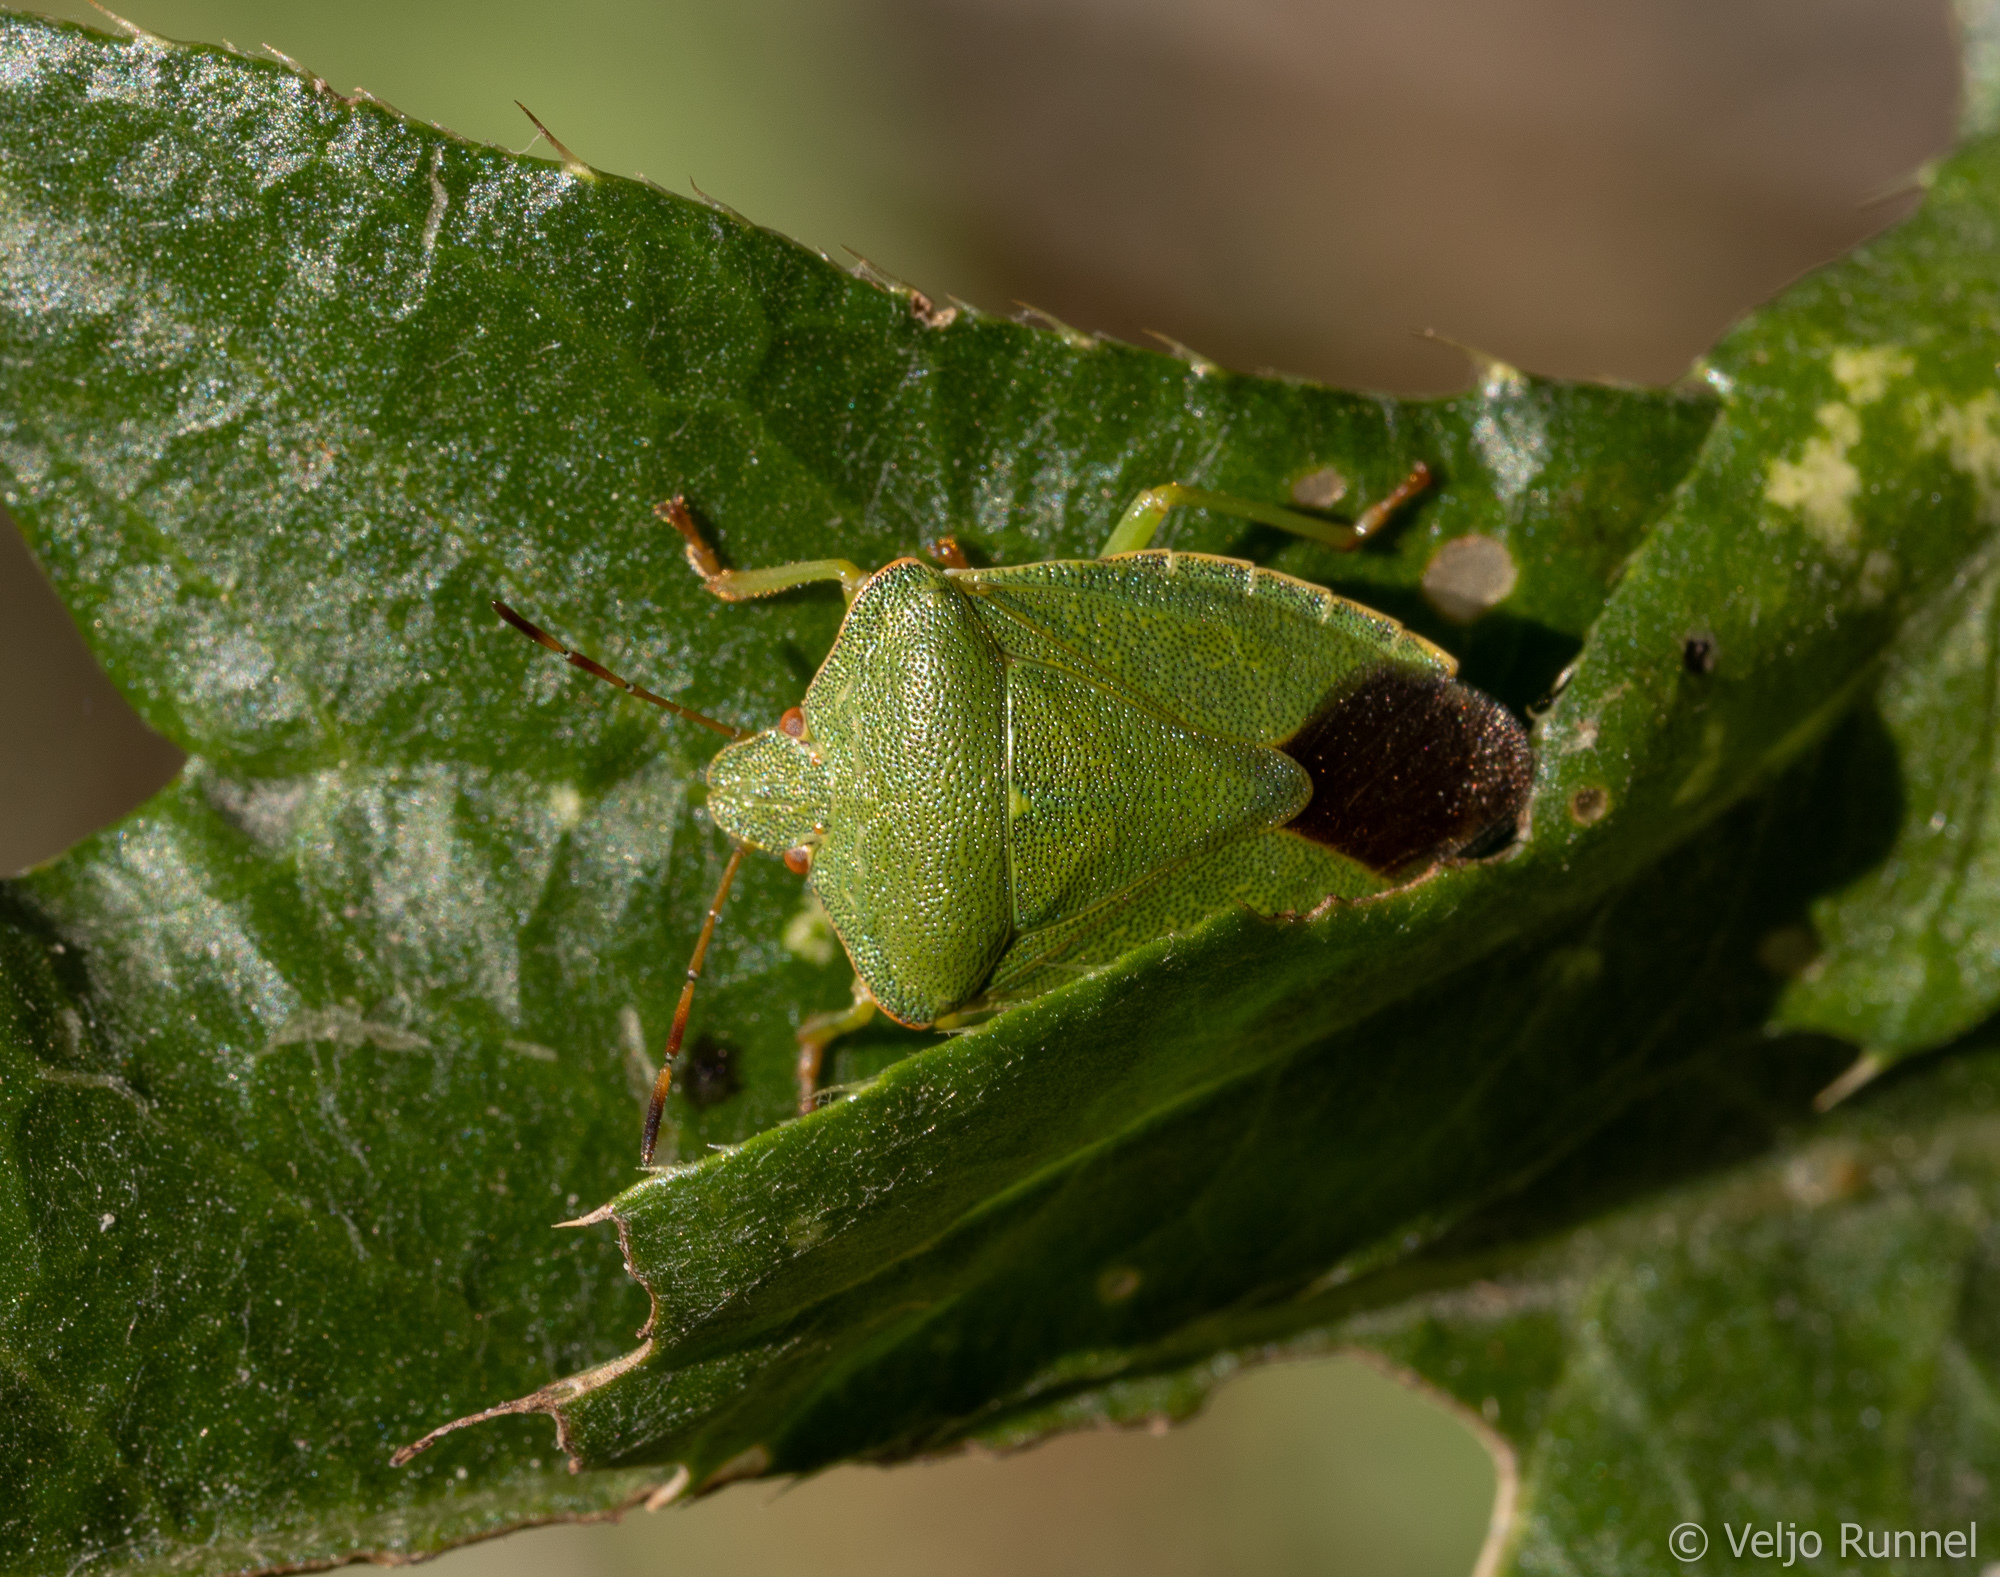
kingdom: Animalia
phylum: Arthropoda
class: Insecta
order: Hemiptera
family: Pentatomidae
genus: Palomena
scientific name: Palomena prasina
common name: Green shieldbug
